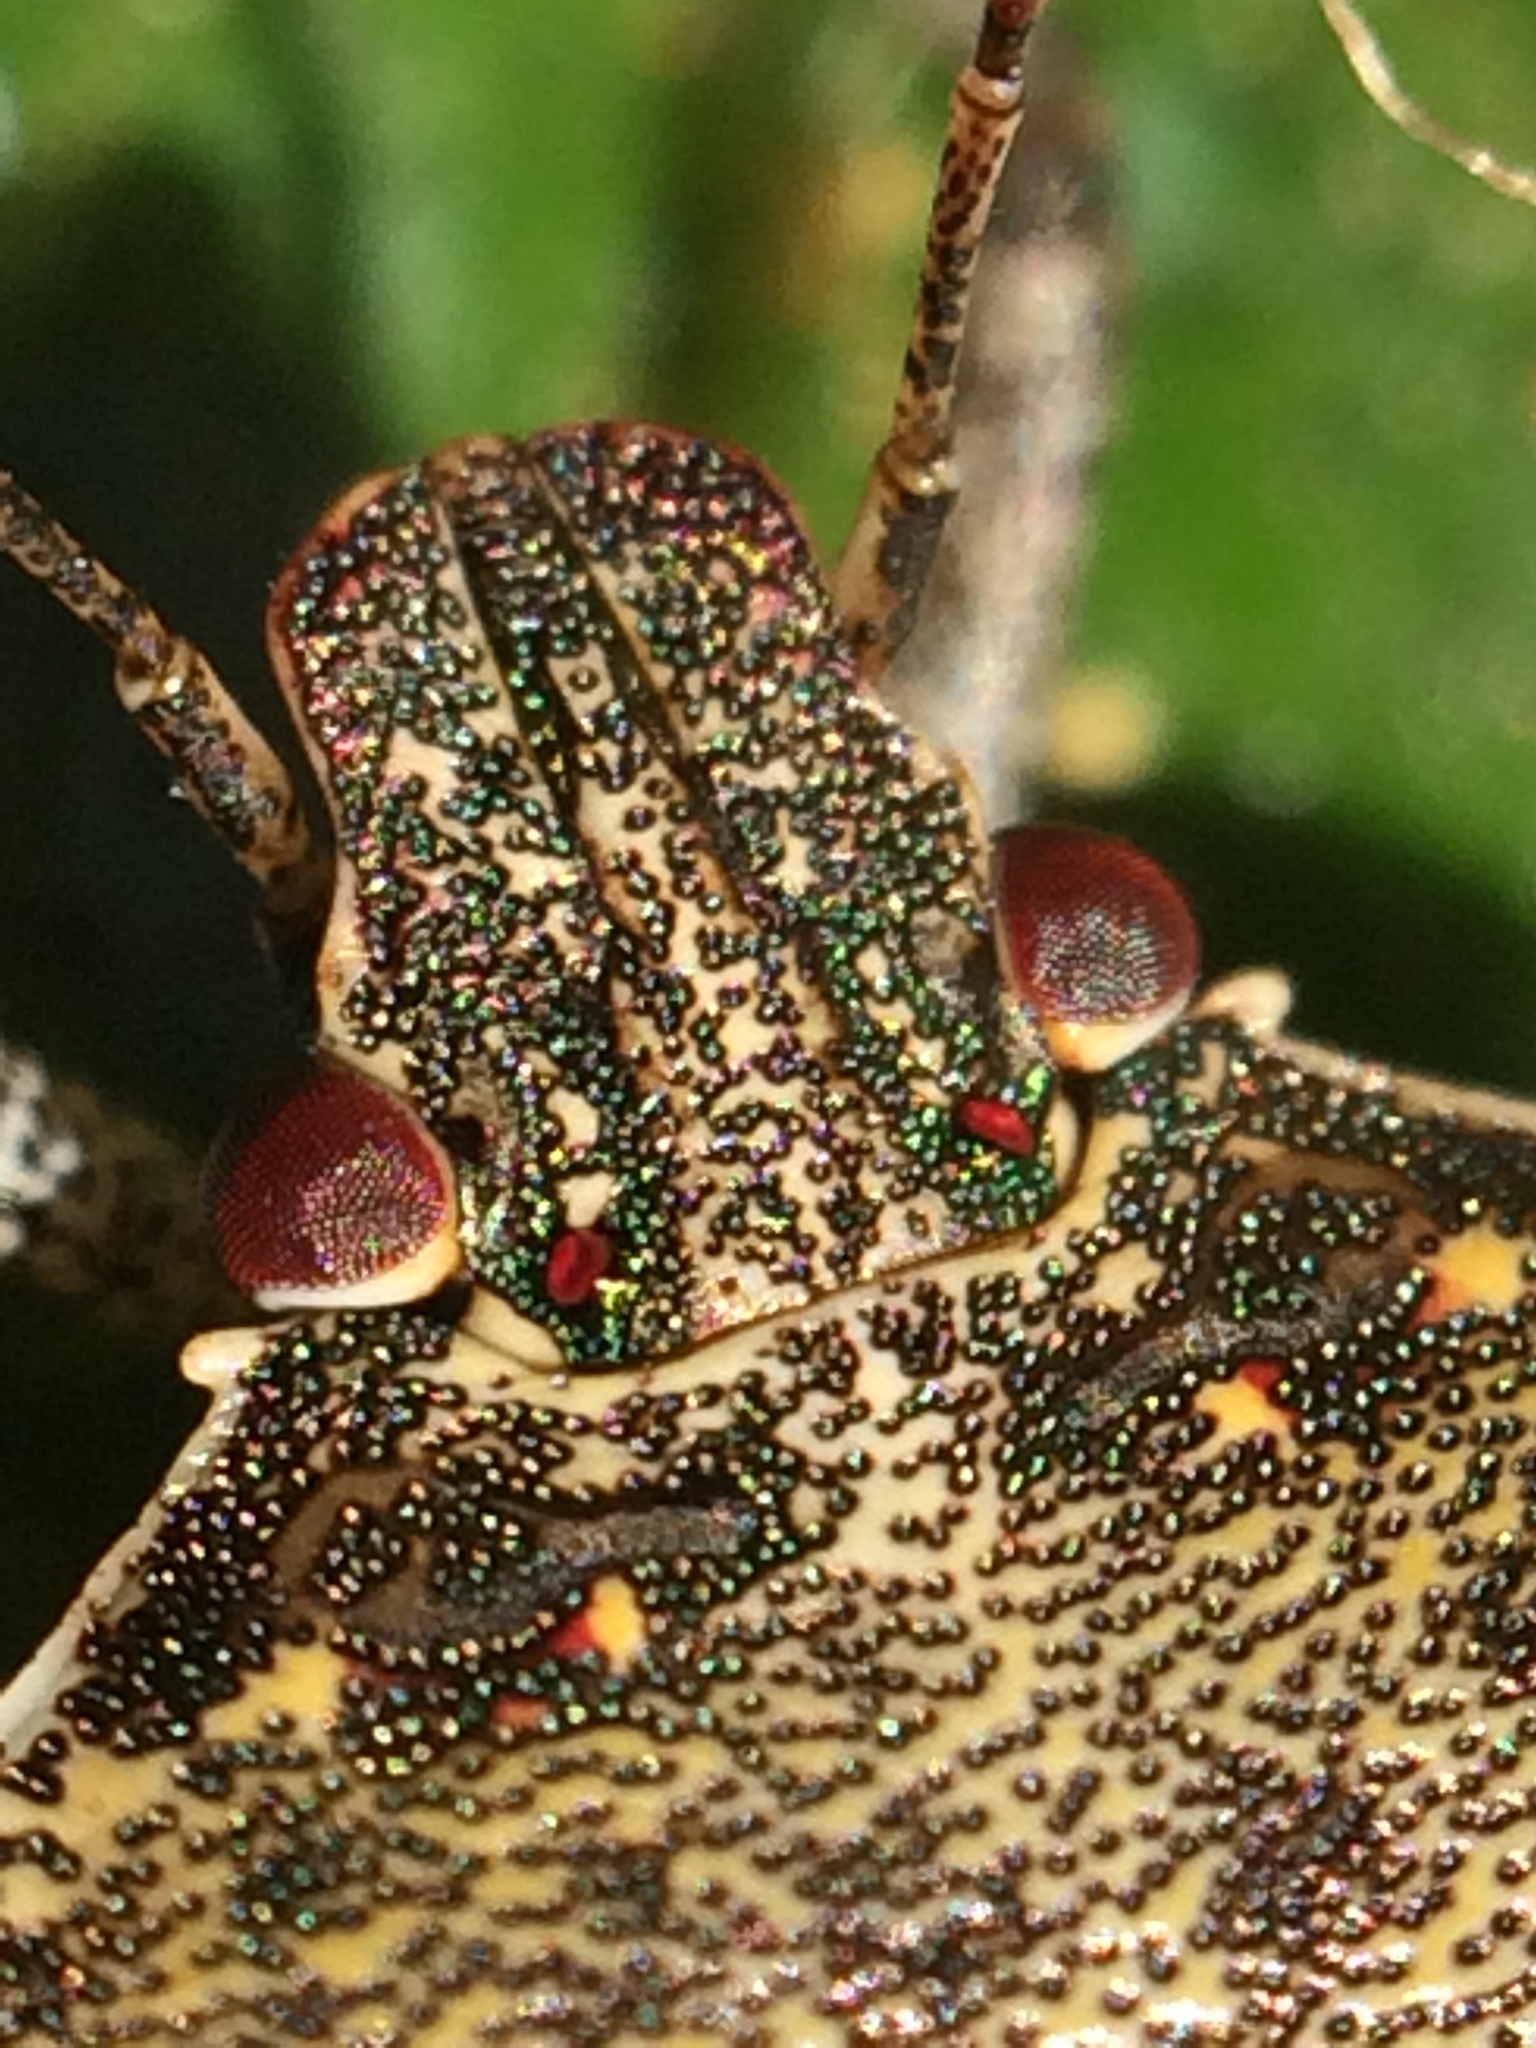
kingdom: Animalia
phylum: Arthropoda
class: Insecta
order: Hemiptera
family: Pentatomidae
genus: Halyomorpha
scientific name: Halyomorpha halys
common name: Brown marmorated stink bug
